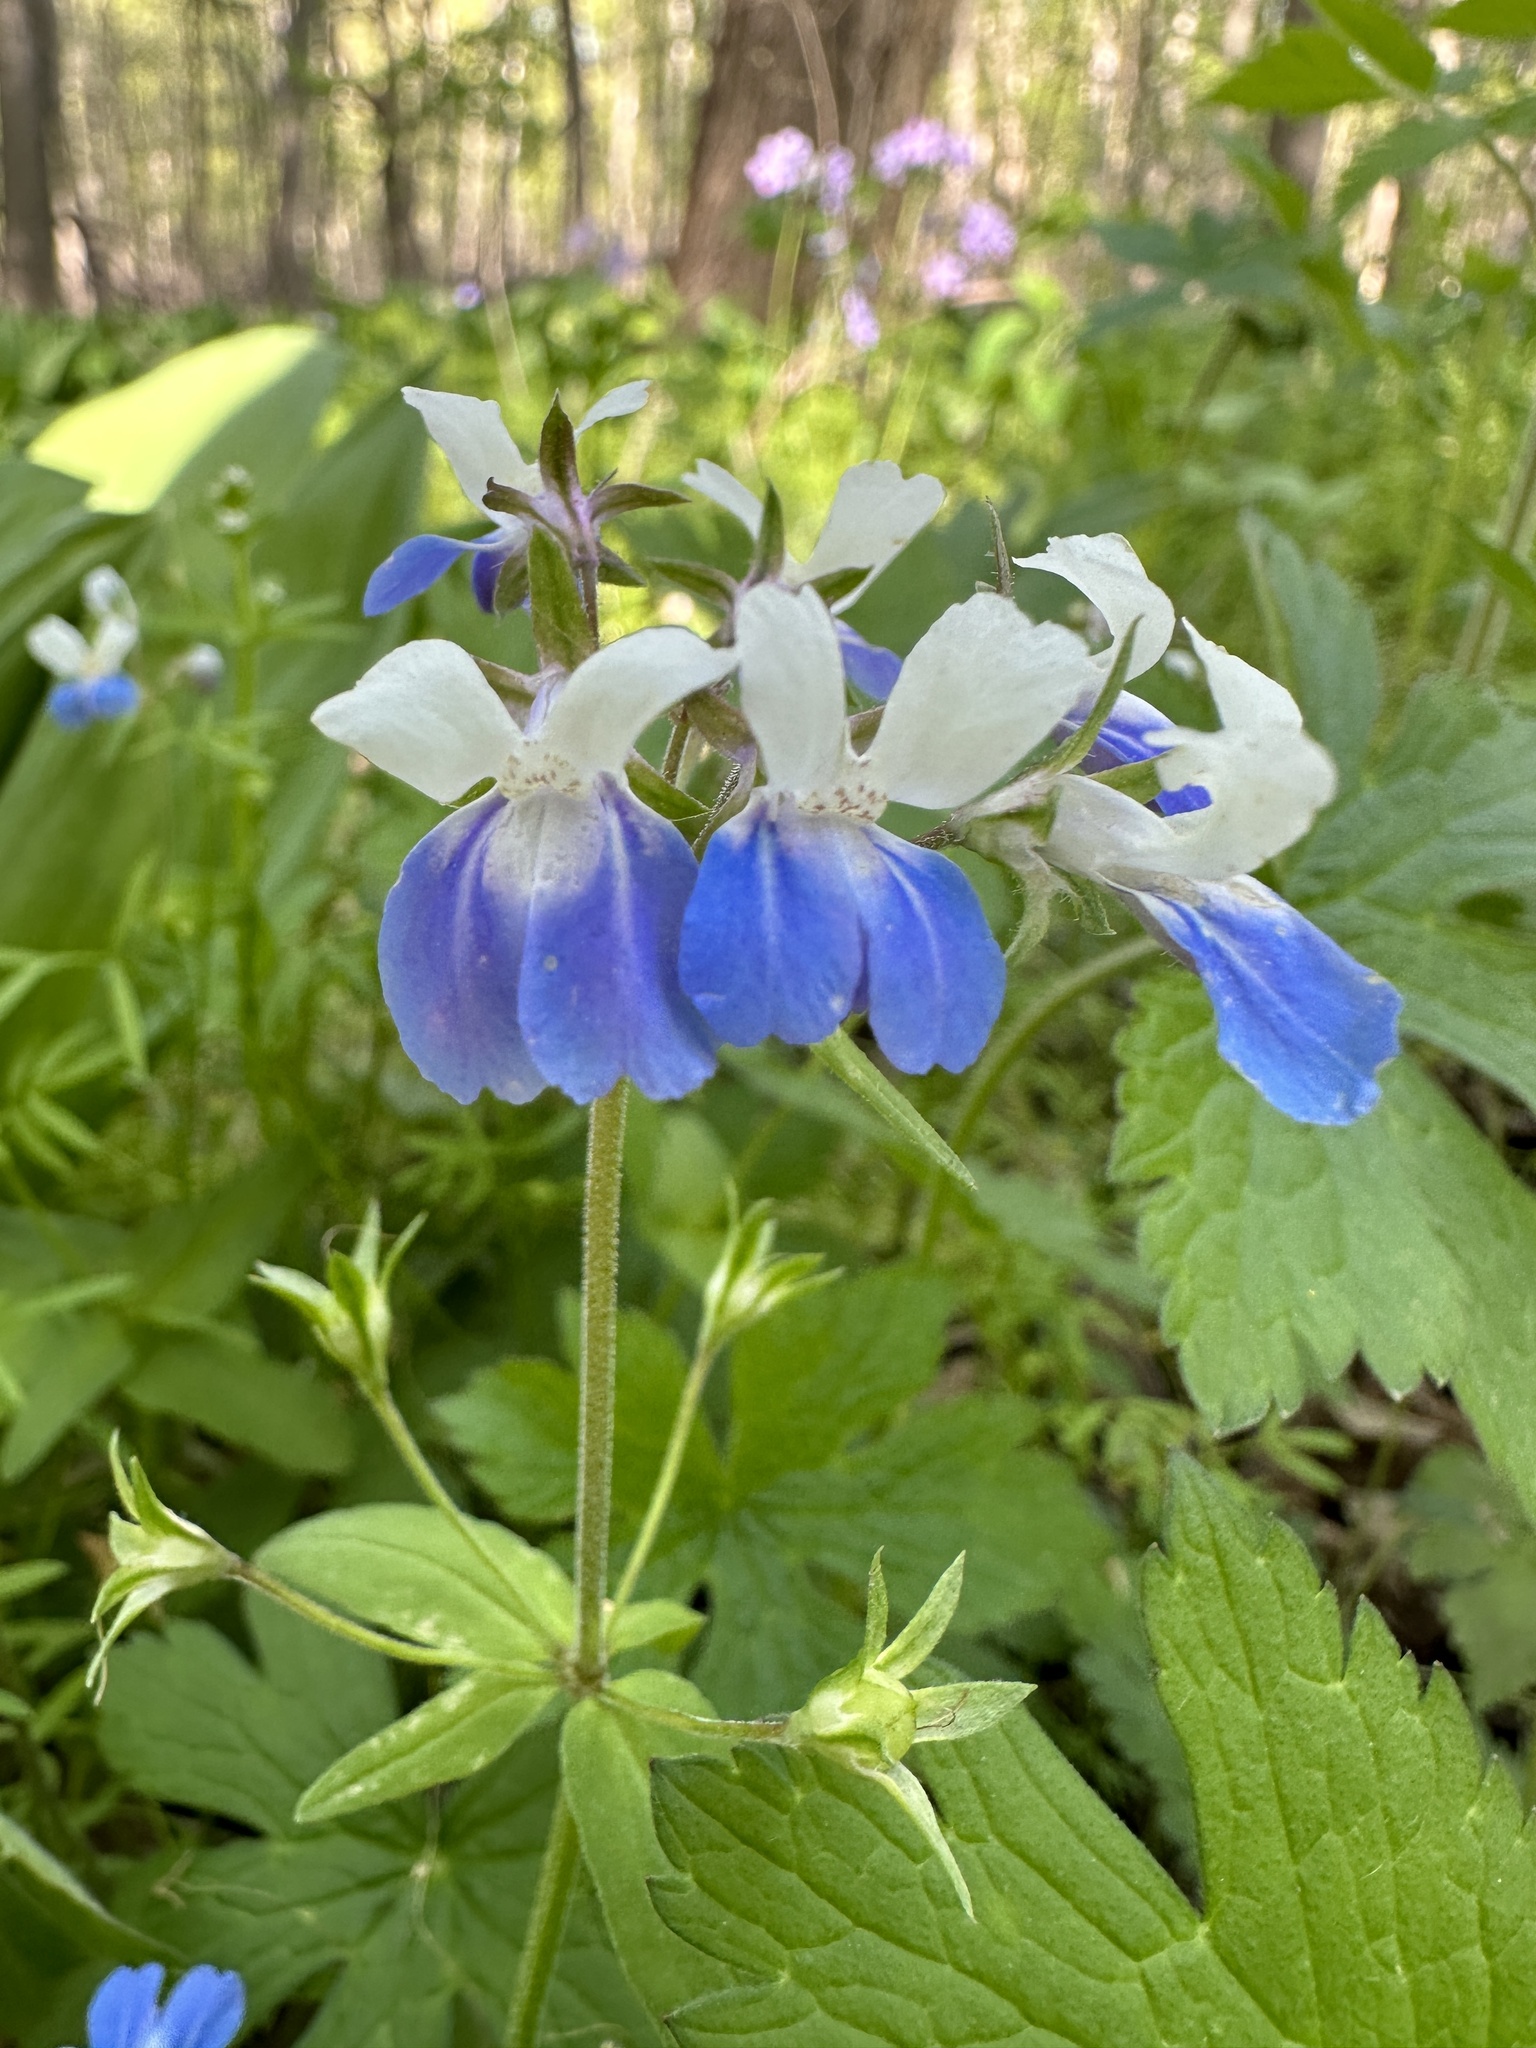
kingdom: Plantae
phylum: Tracheophyta
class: Magnoliopsida
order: Lamiales
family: Plantaginaceae
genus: Collinsia
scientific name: Collinsia verna
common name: Broad-leaved collinsia
